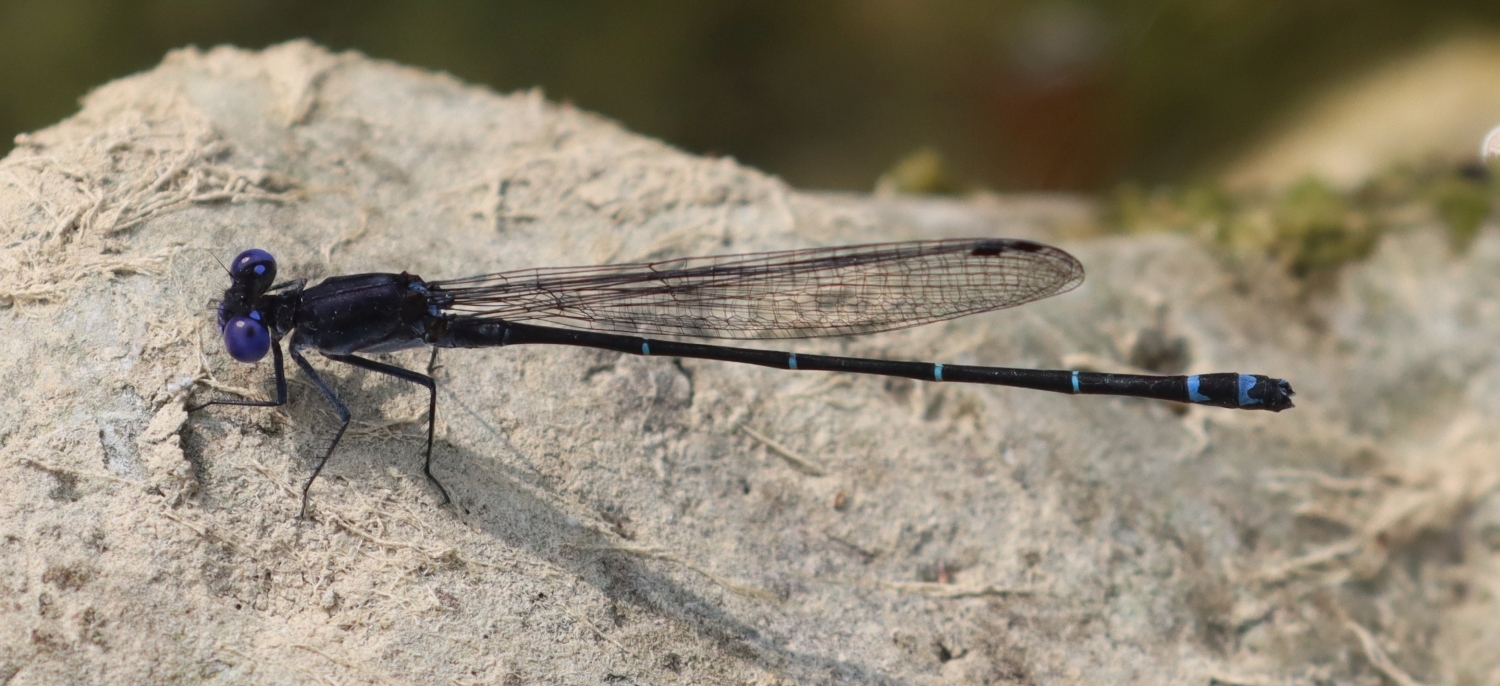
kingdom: Animalia
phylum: Arthropoda
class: Insecta
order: Odonata
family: Coenagrionidae
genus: Argia
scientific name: Argia translata
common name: Dusky dancer
